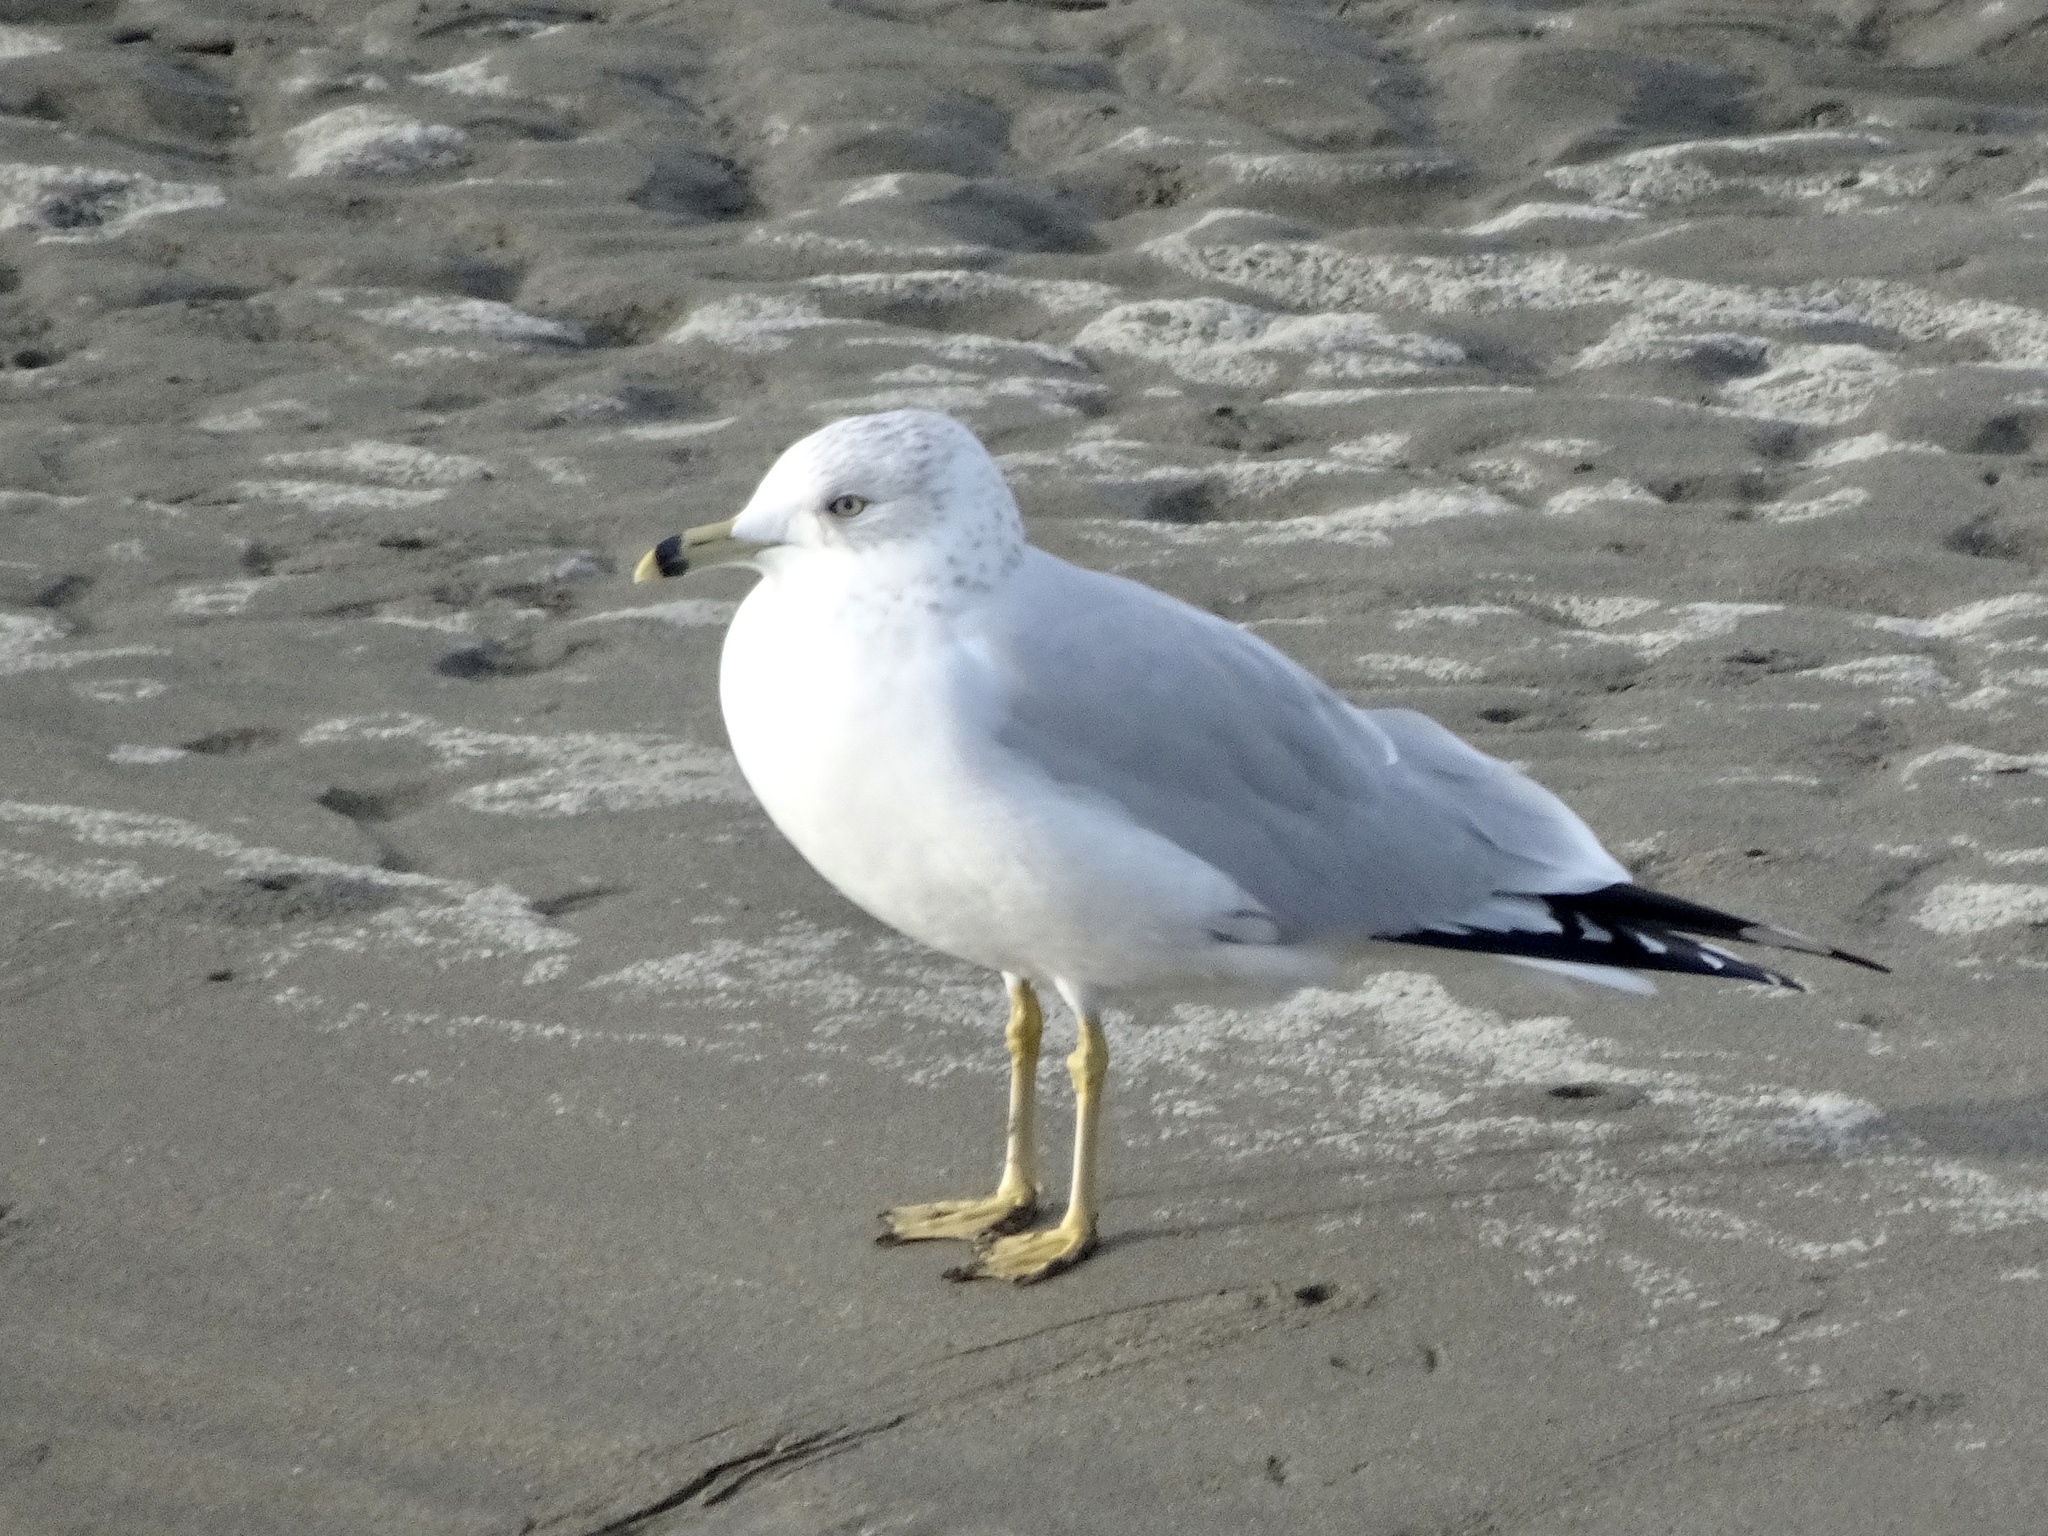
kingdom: Animalia
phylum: Chordata
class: Aves
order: Charadriiformes
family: Laridae
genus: Larus
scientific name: Larus delawarensis
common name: Ring-billed gull
